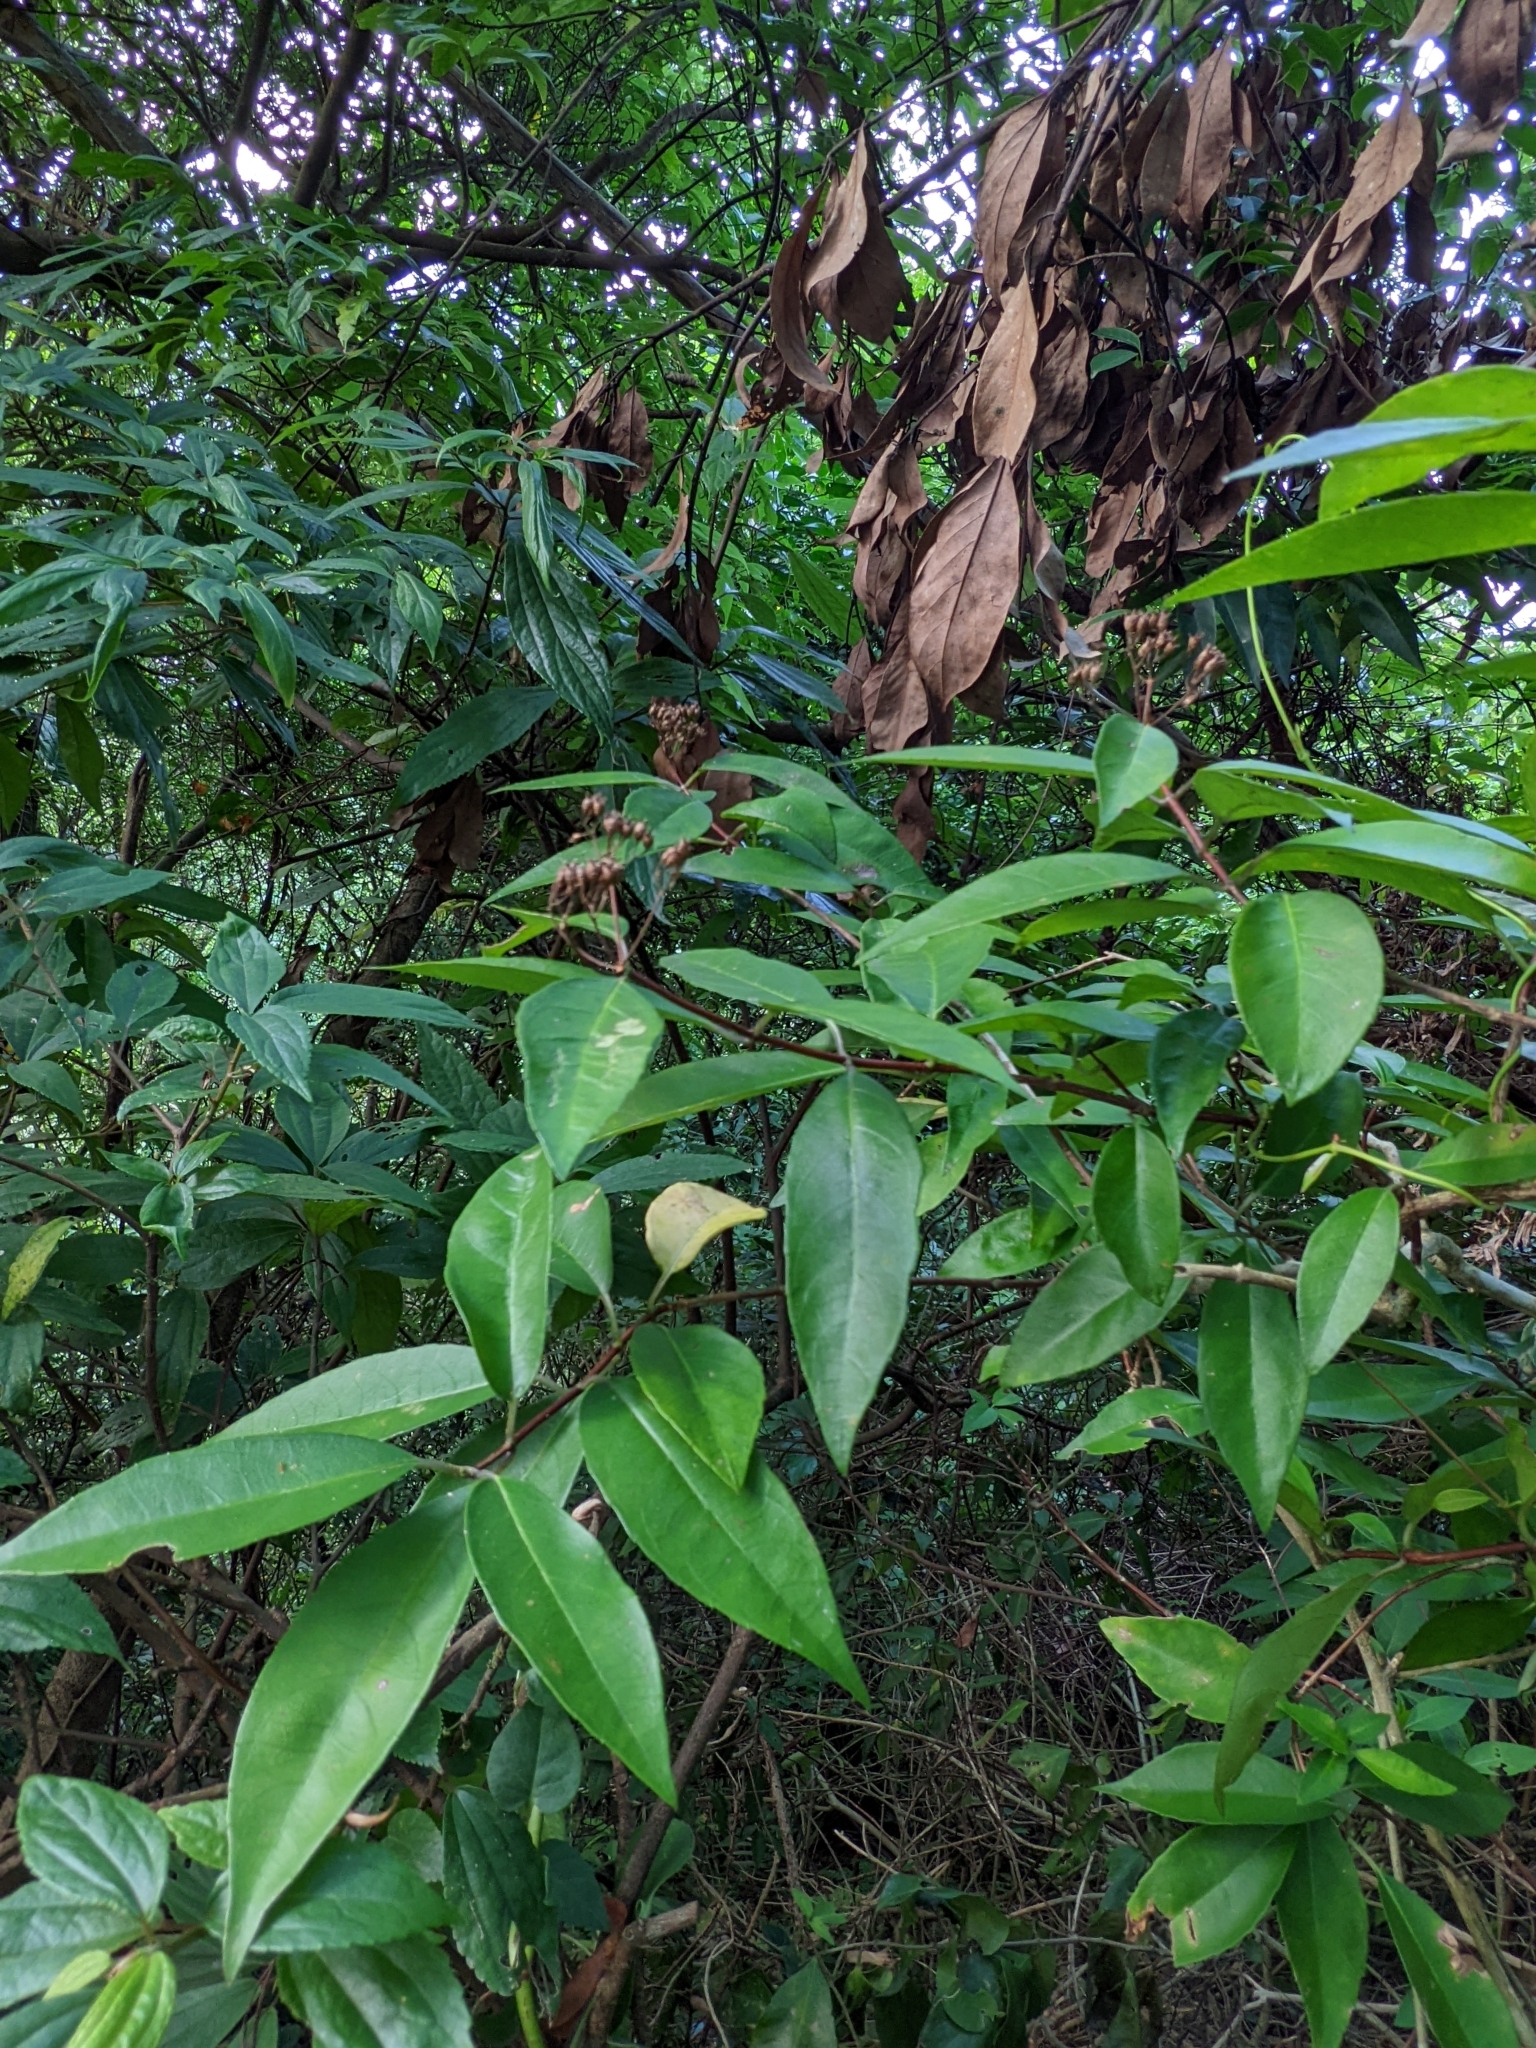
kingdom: Plantae
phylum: Tracheophyta
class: Magnoliopsida
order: Cornales
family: Hydrangeaceae
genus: Hydrangea
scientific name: Hydrangea chinensis
